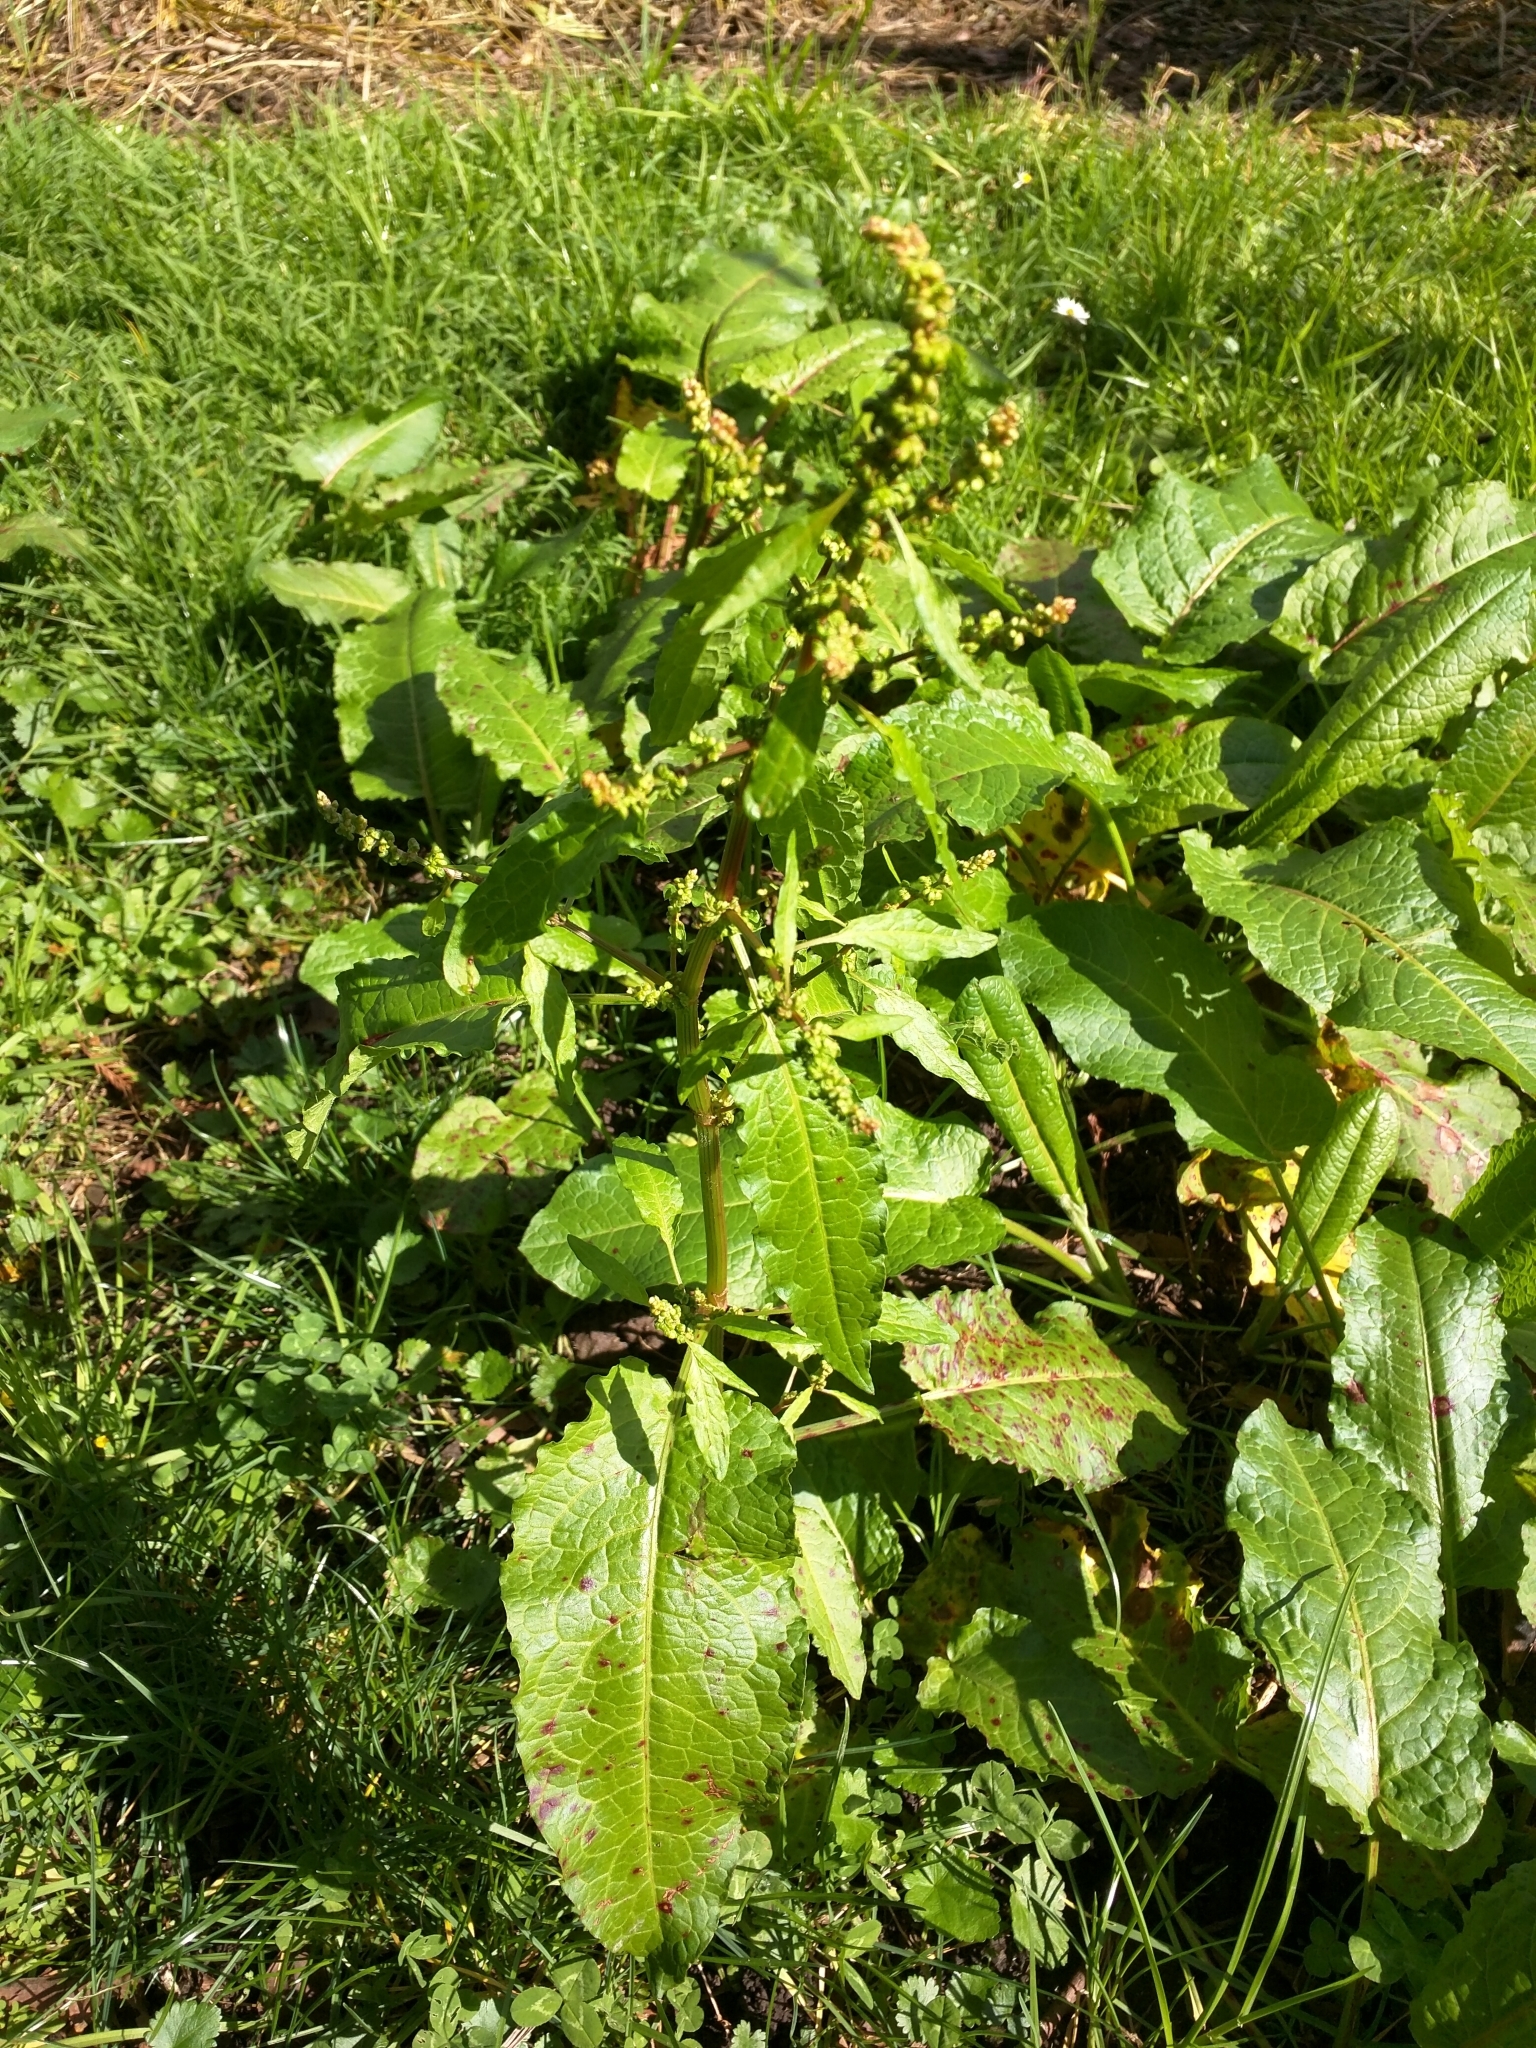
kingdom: Plantae
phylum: Tracheophyta
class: Magnoliopsida
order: Caryophyllales
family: Polygonaceae
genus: Rumex
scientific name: Rumex obtusifolius
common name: Bitter dock
